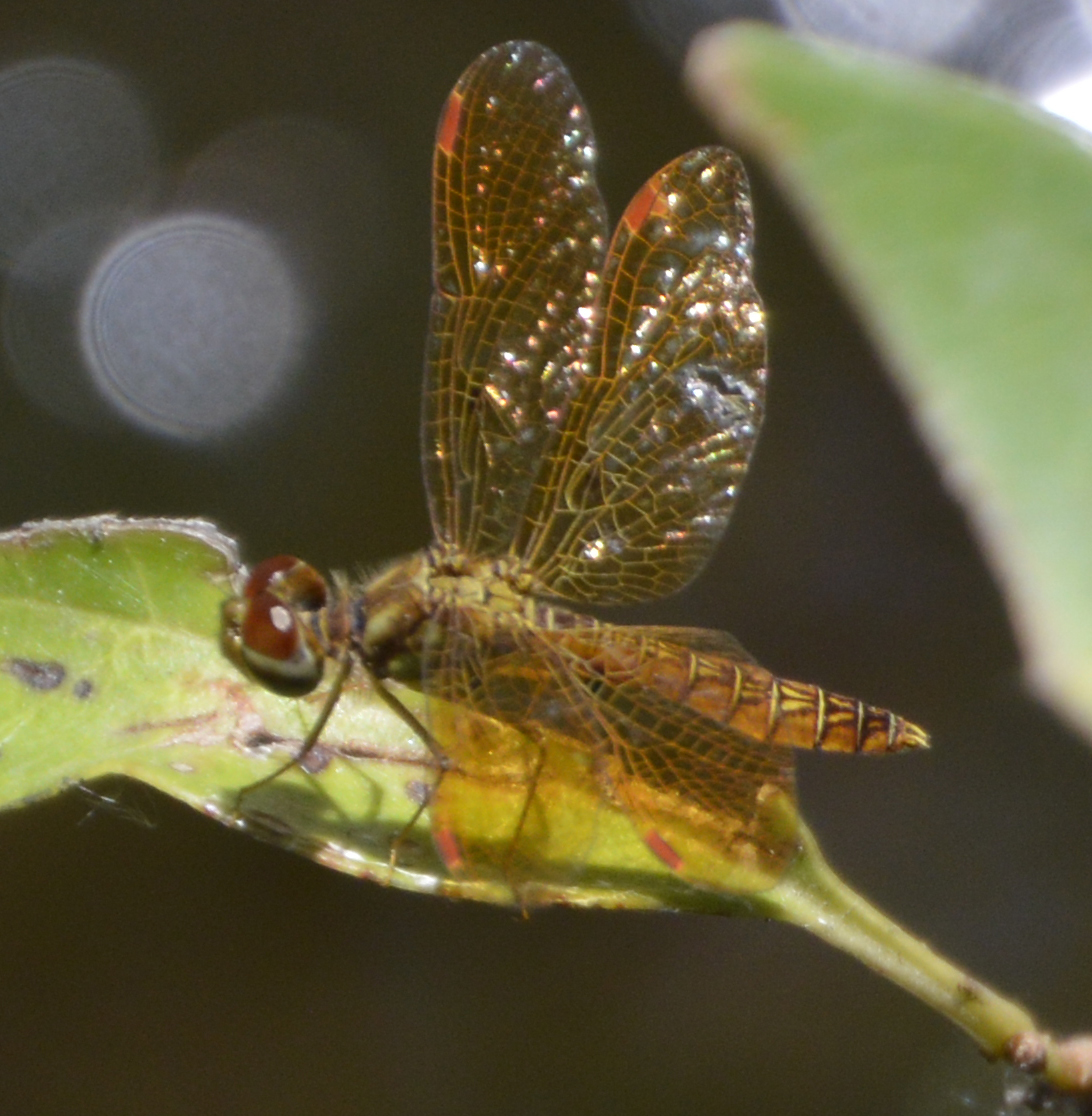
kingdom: Animalia
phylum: Arthropoda
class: Insecta
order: Odonata
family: Libellulidae
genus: Perithemis
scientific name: Perithemis tenera
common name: Eastern amberwing
